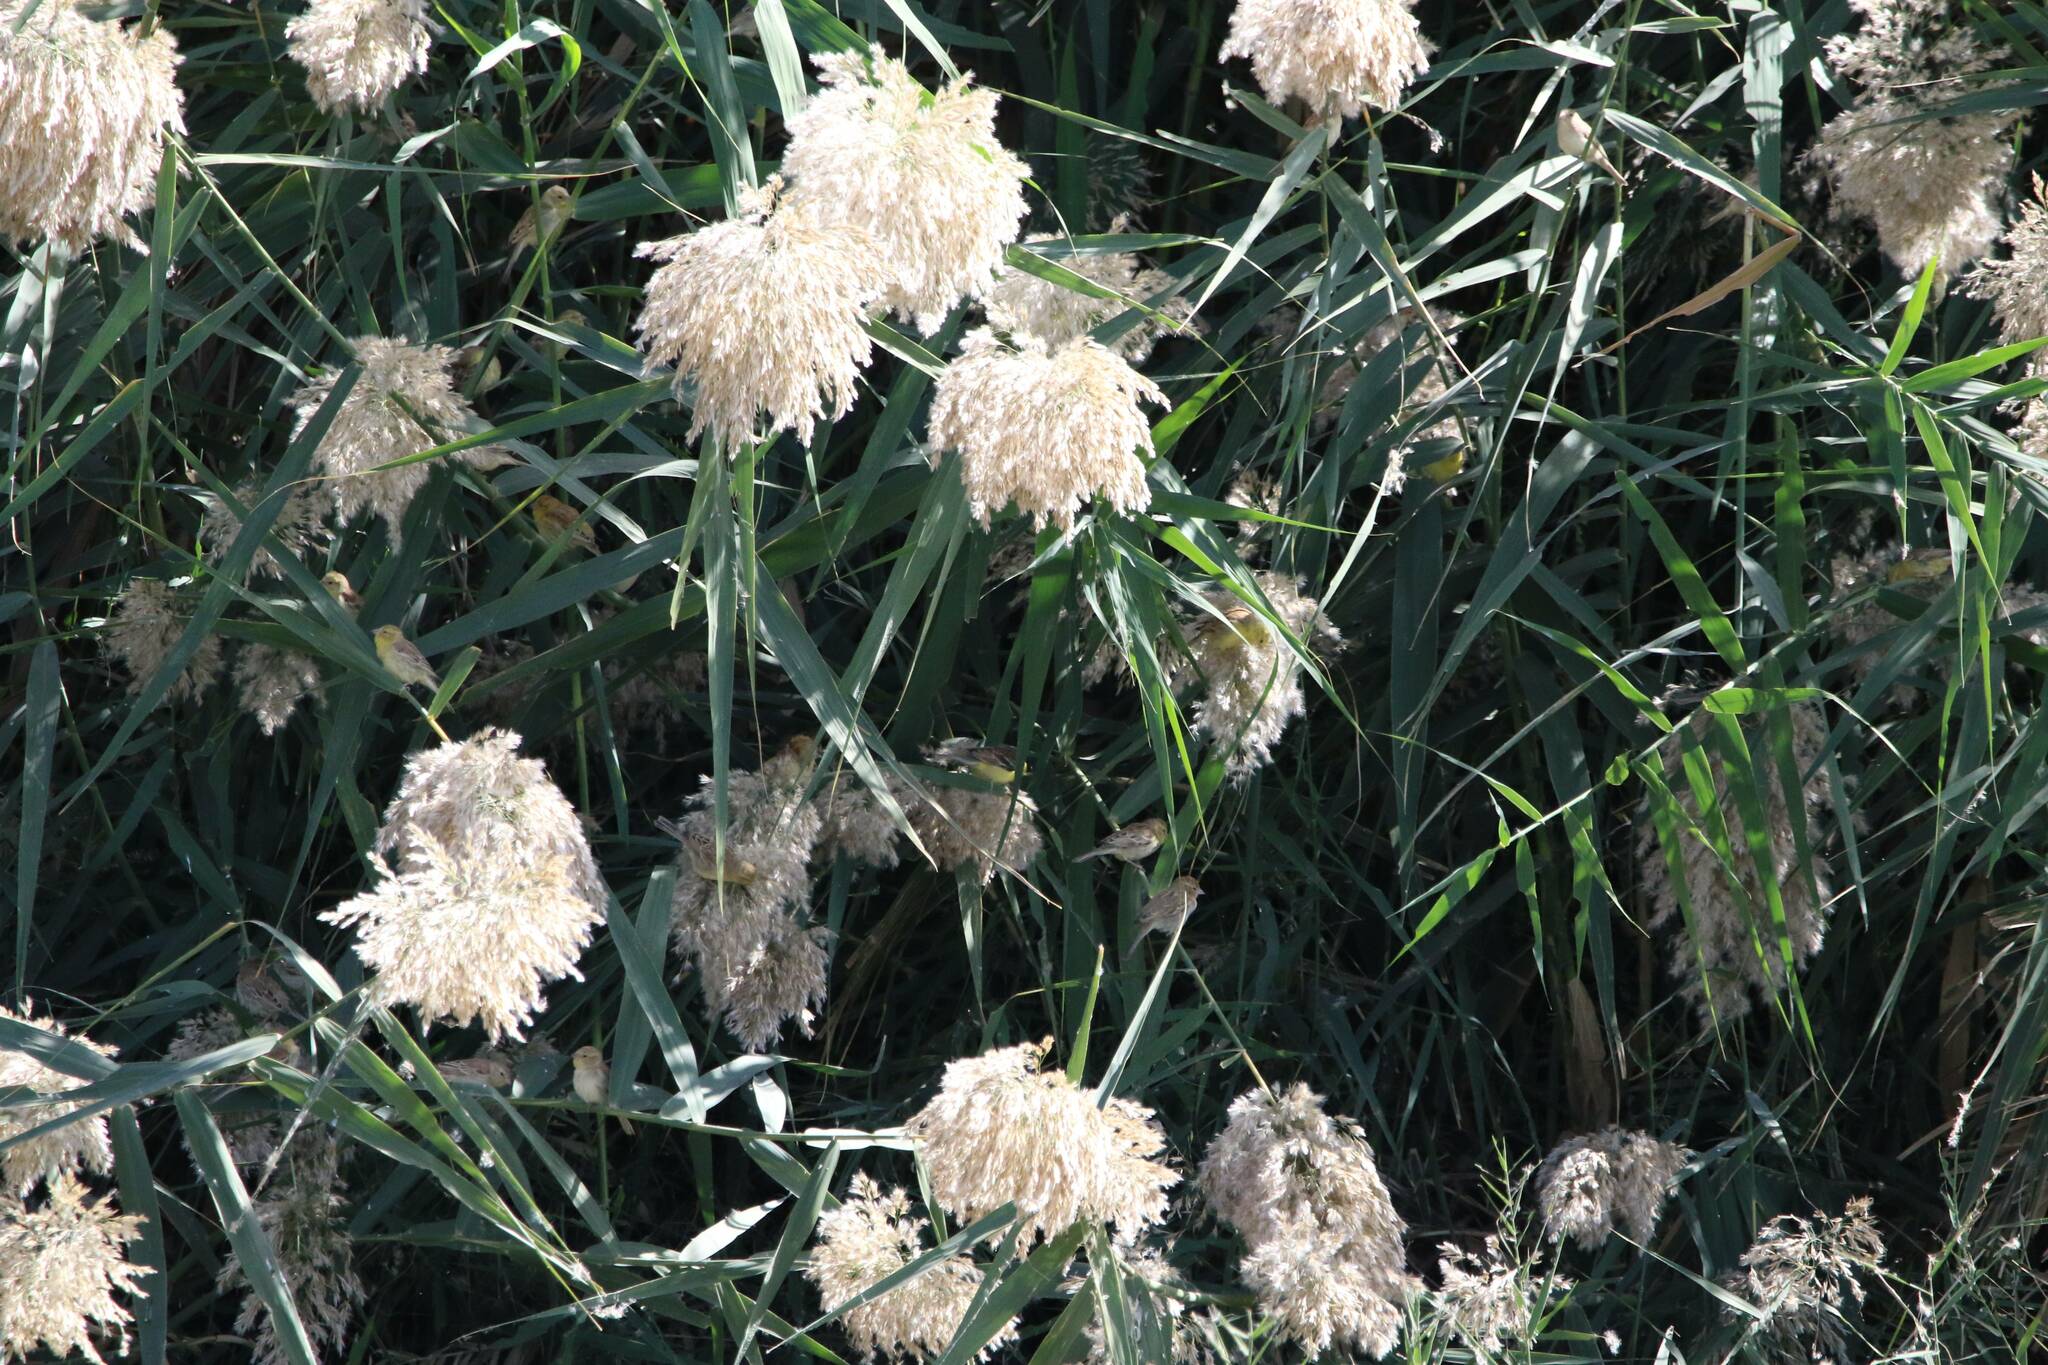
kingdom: Plantae
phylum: Tracheophyta
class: Liliopsida
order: Poales
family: Poaceae
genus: Phragmites
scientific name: Phragmites australis
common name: Common reed
